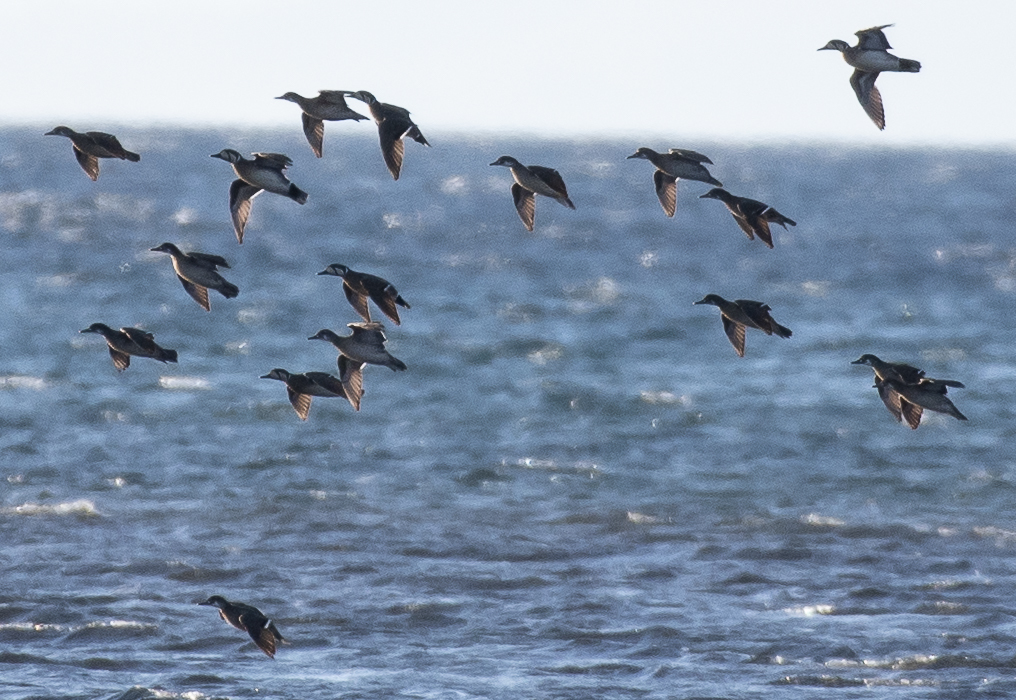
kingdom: Animalia
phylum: Chordata
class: Aves
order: Anseriformes
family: Anatidae
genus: Sibirionetta
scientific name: Sibirionetta formosa
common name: Baikal teal
